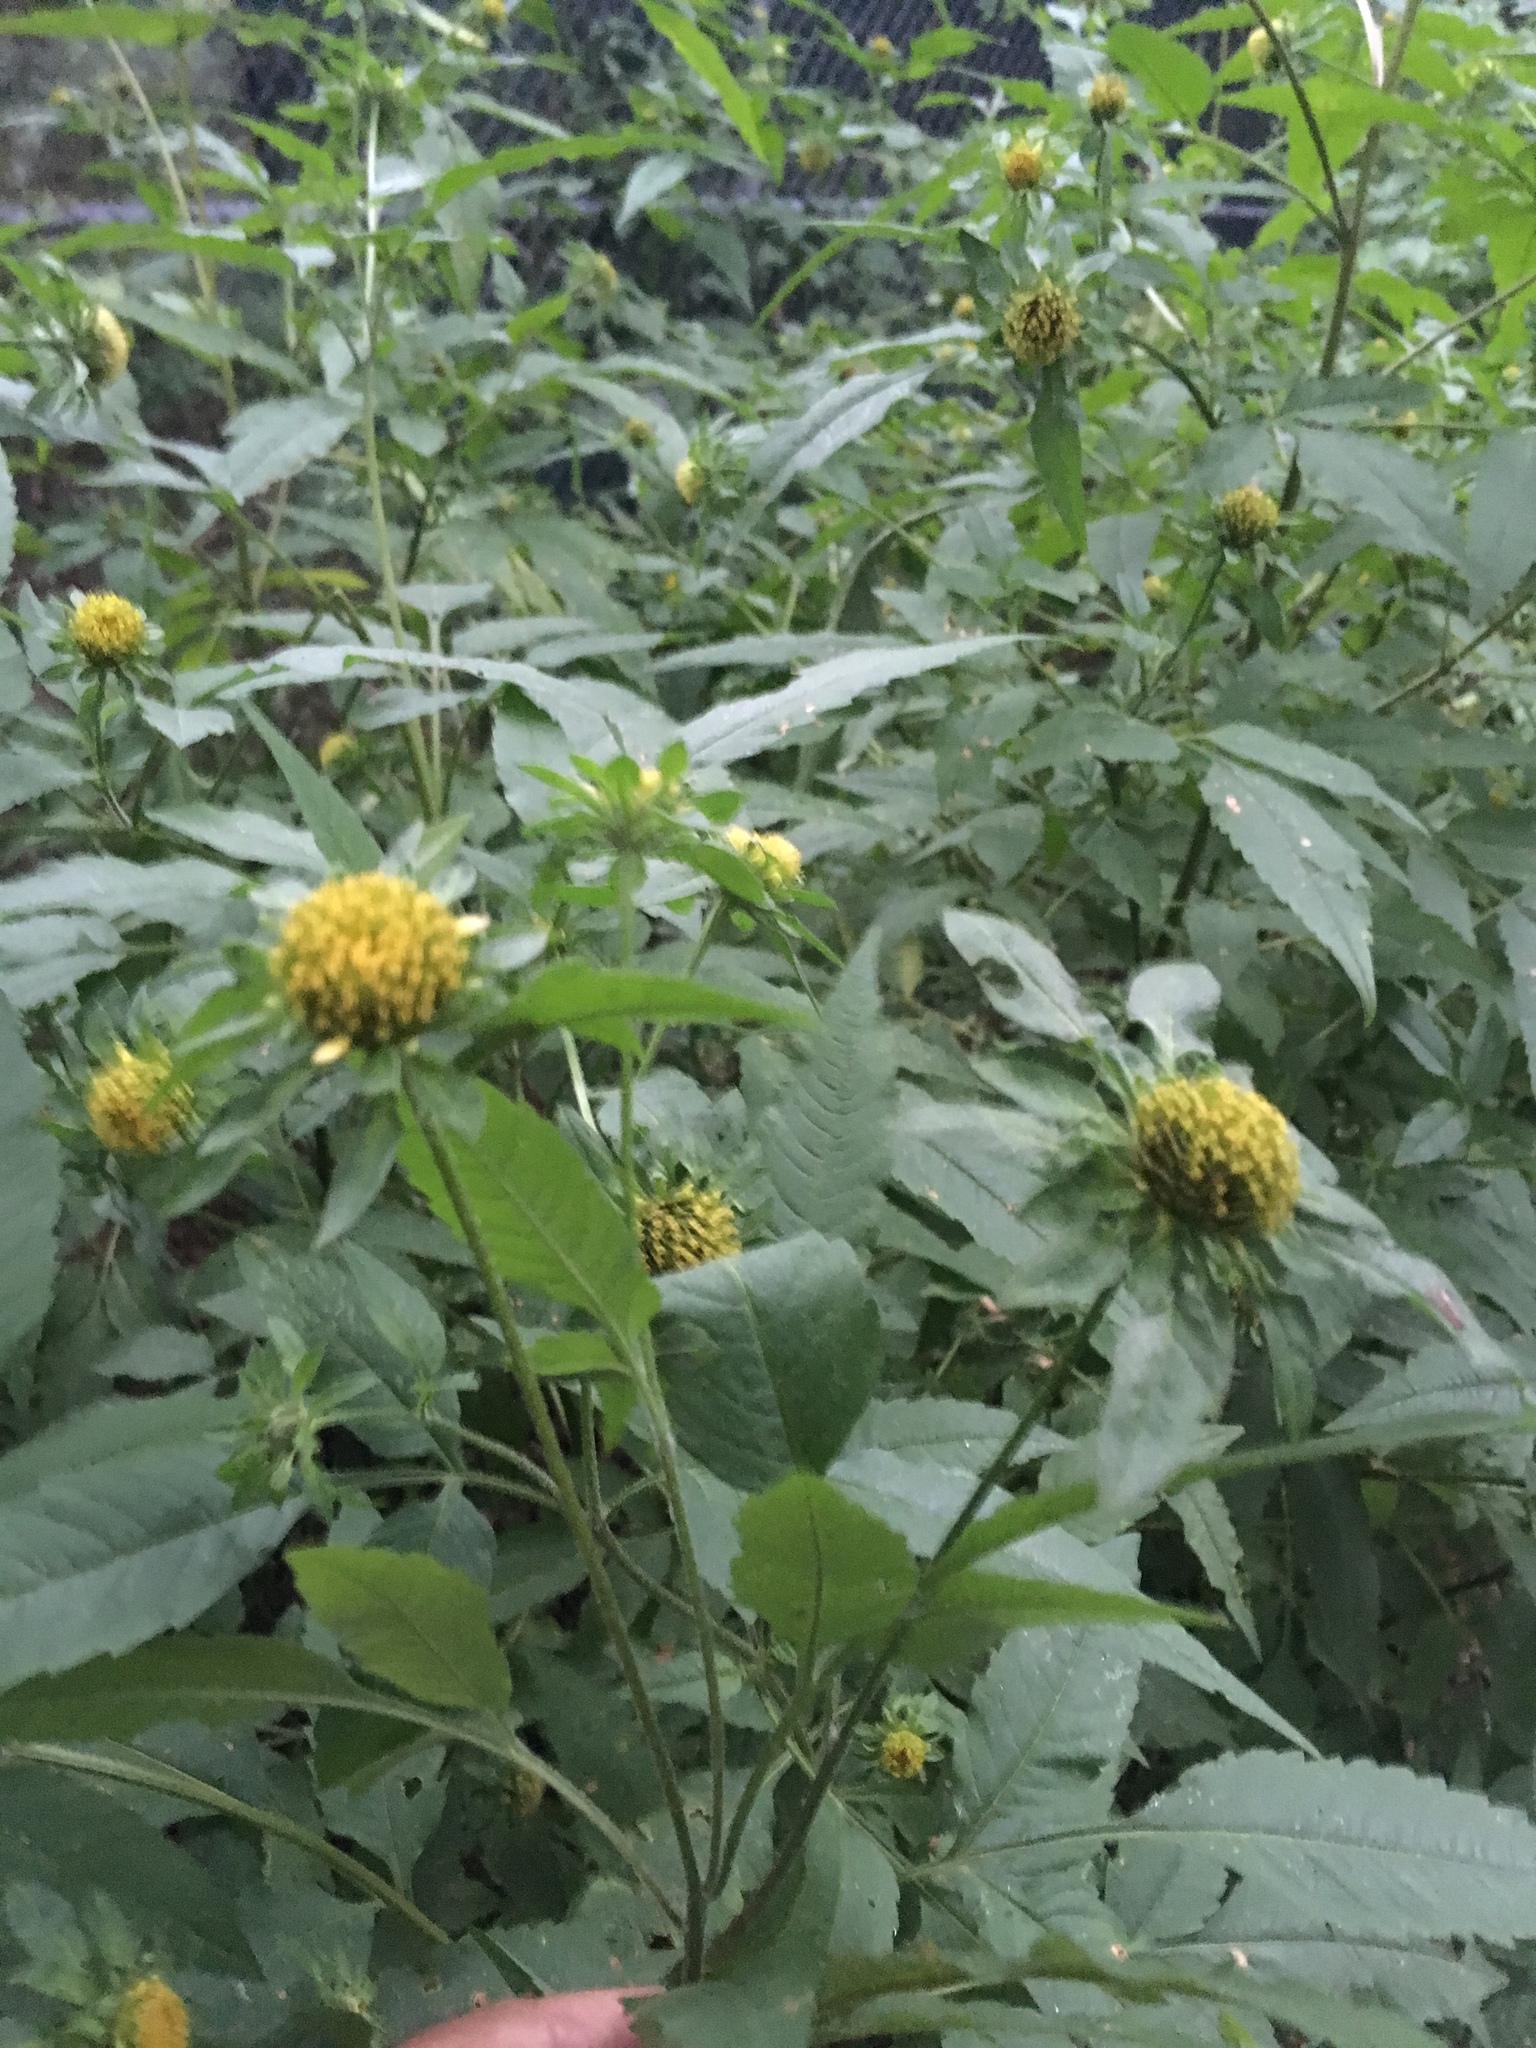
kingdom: Plantae
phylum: Tracheophyta
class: Magnoliopsida
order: Asterales
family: Asteraceae
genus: Bidens
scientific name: Bidens vulgata
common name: Tall beggarticks
